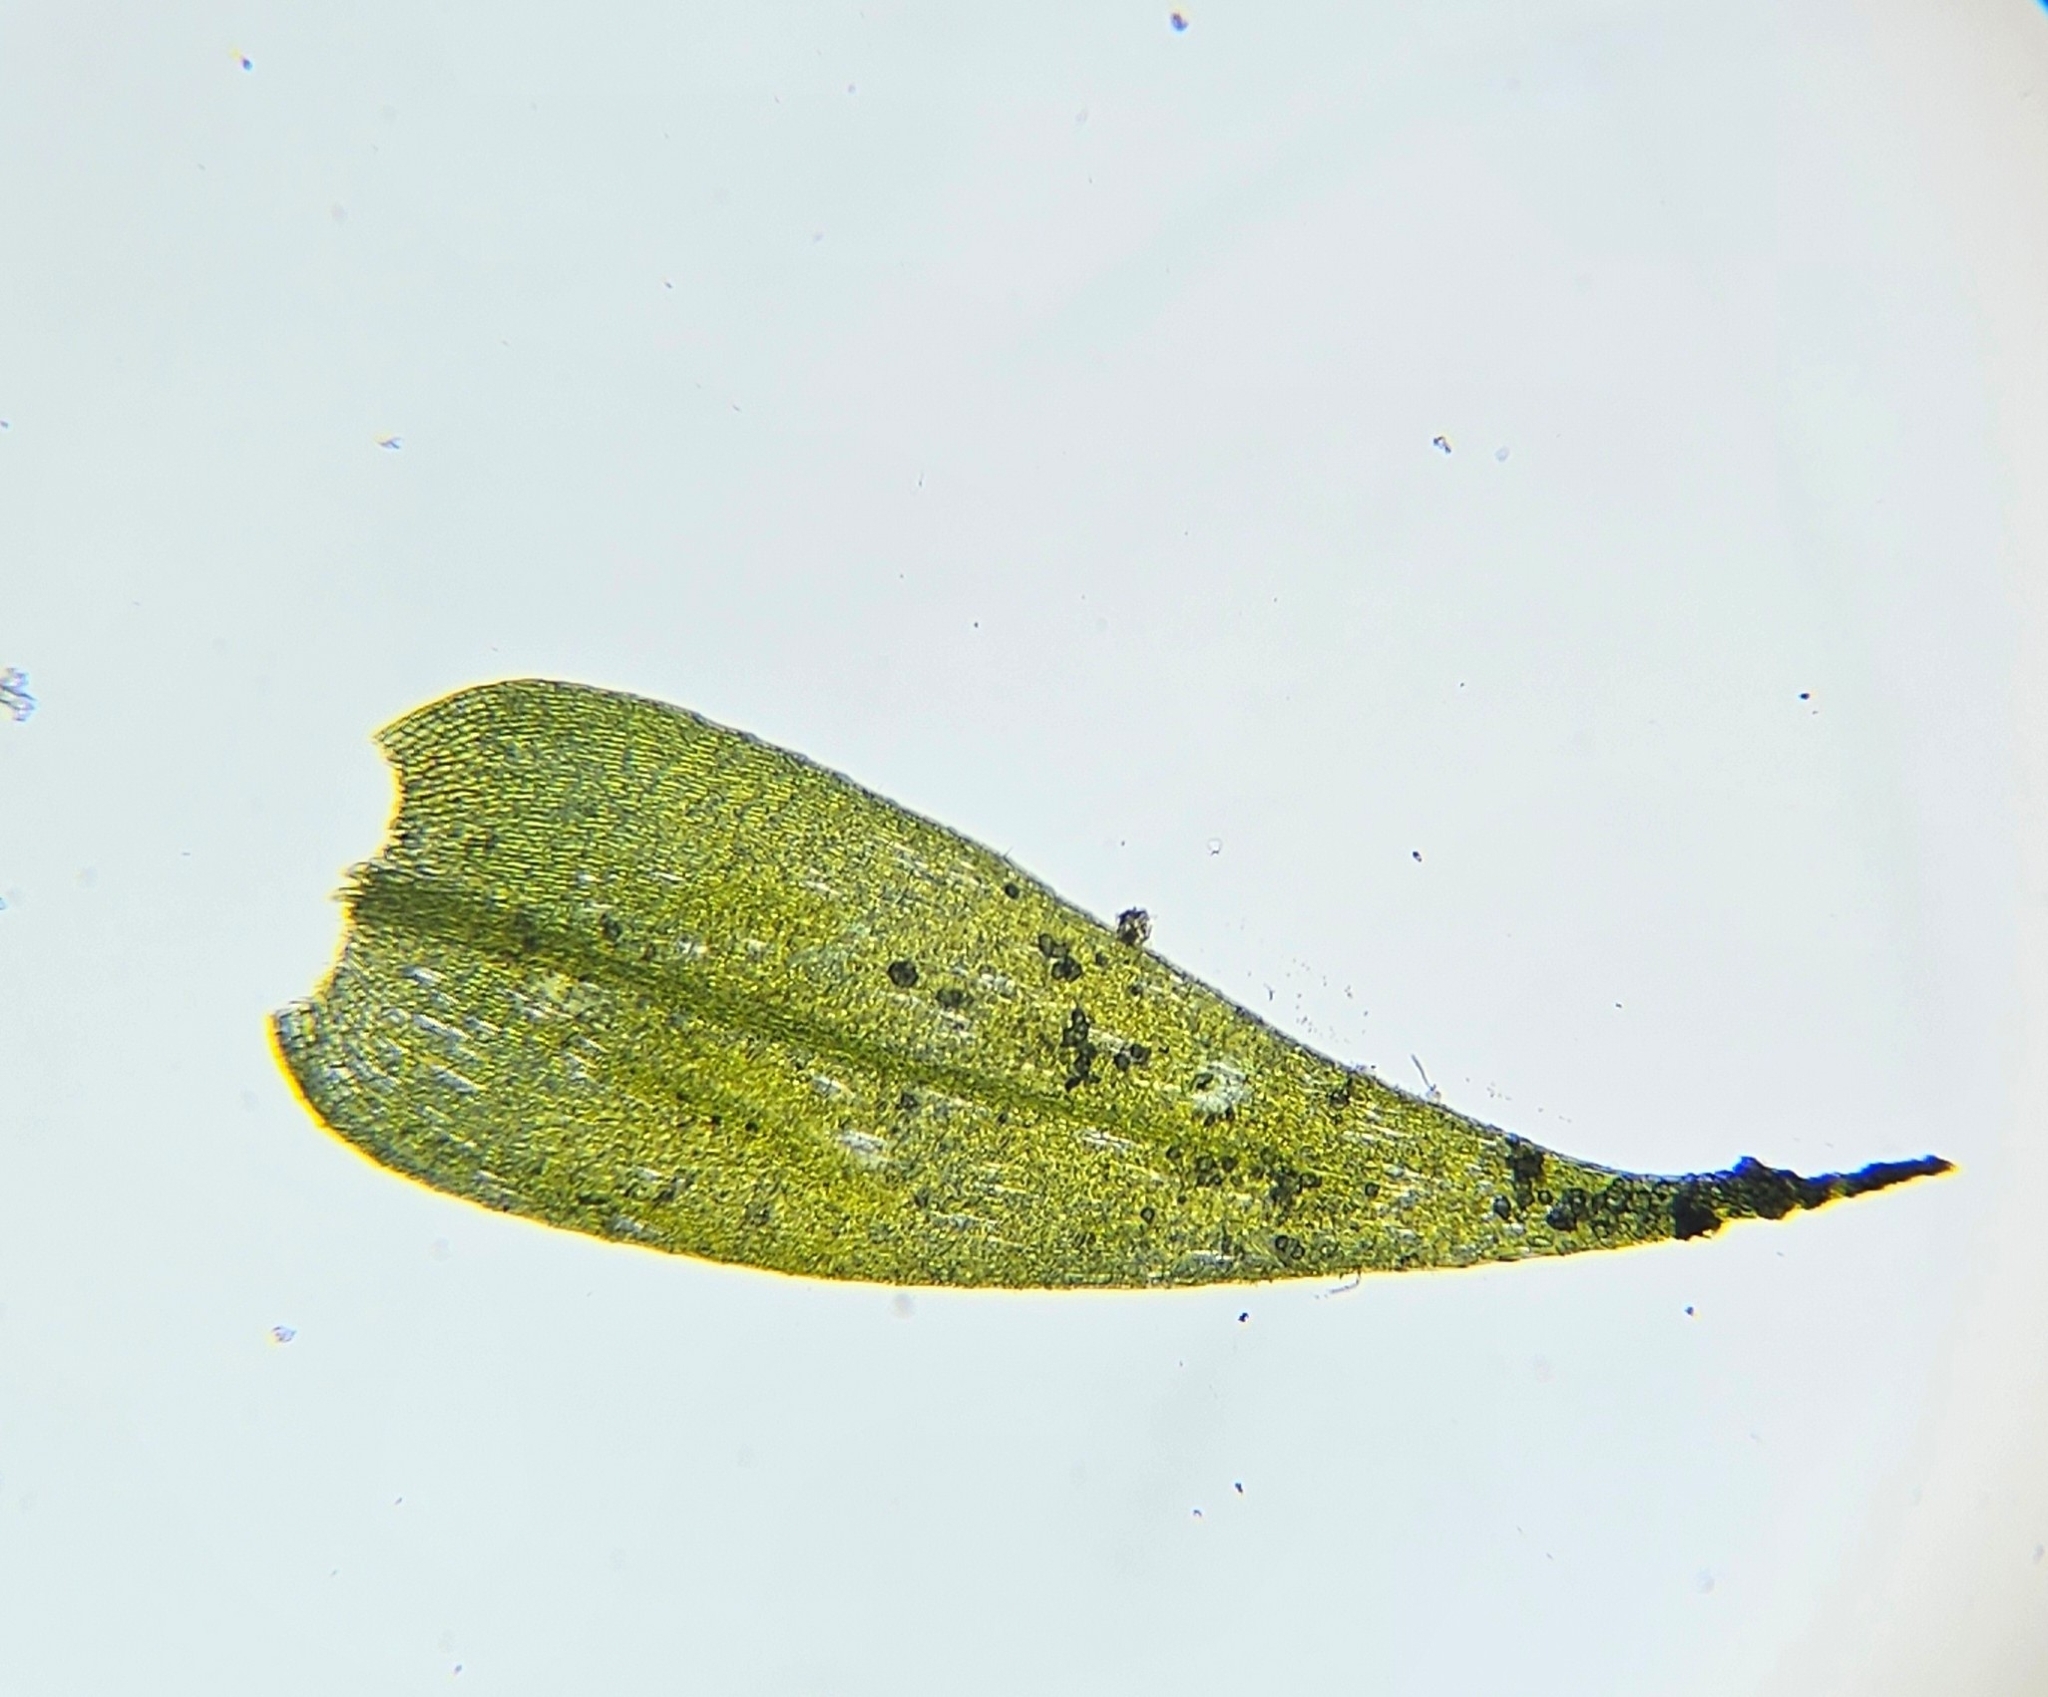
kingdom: Plantae
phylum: Bryophyta
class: Bryopsida
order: Hypnales
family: Amblystegiaceae
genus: Leptodictyum
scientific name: Leptodictyum riparium
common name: Riparian feather moss
